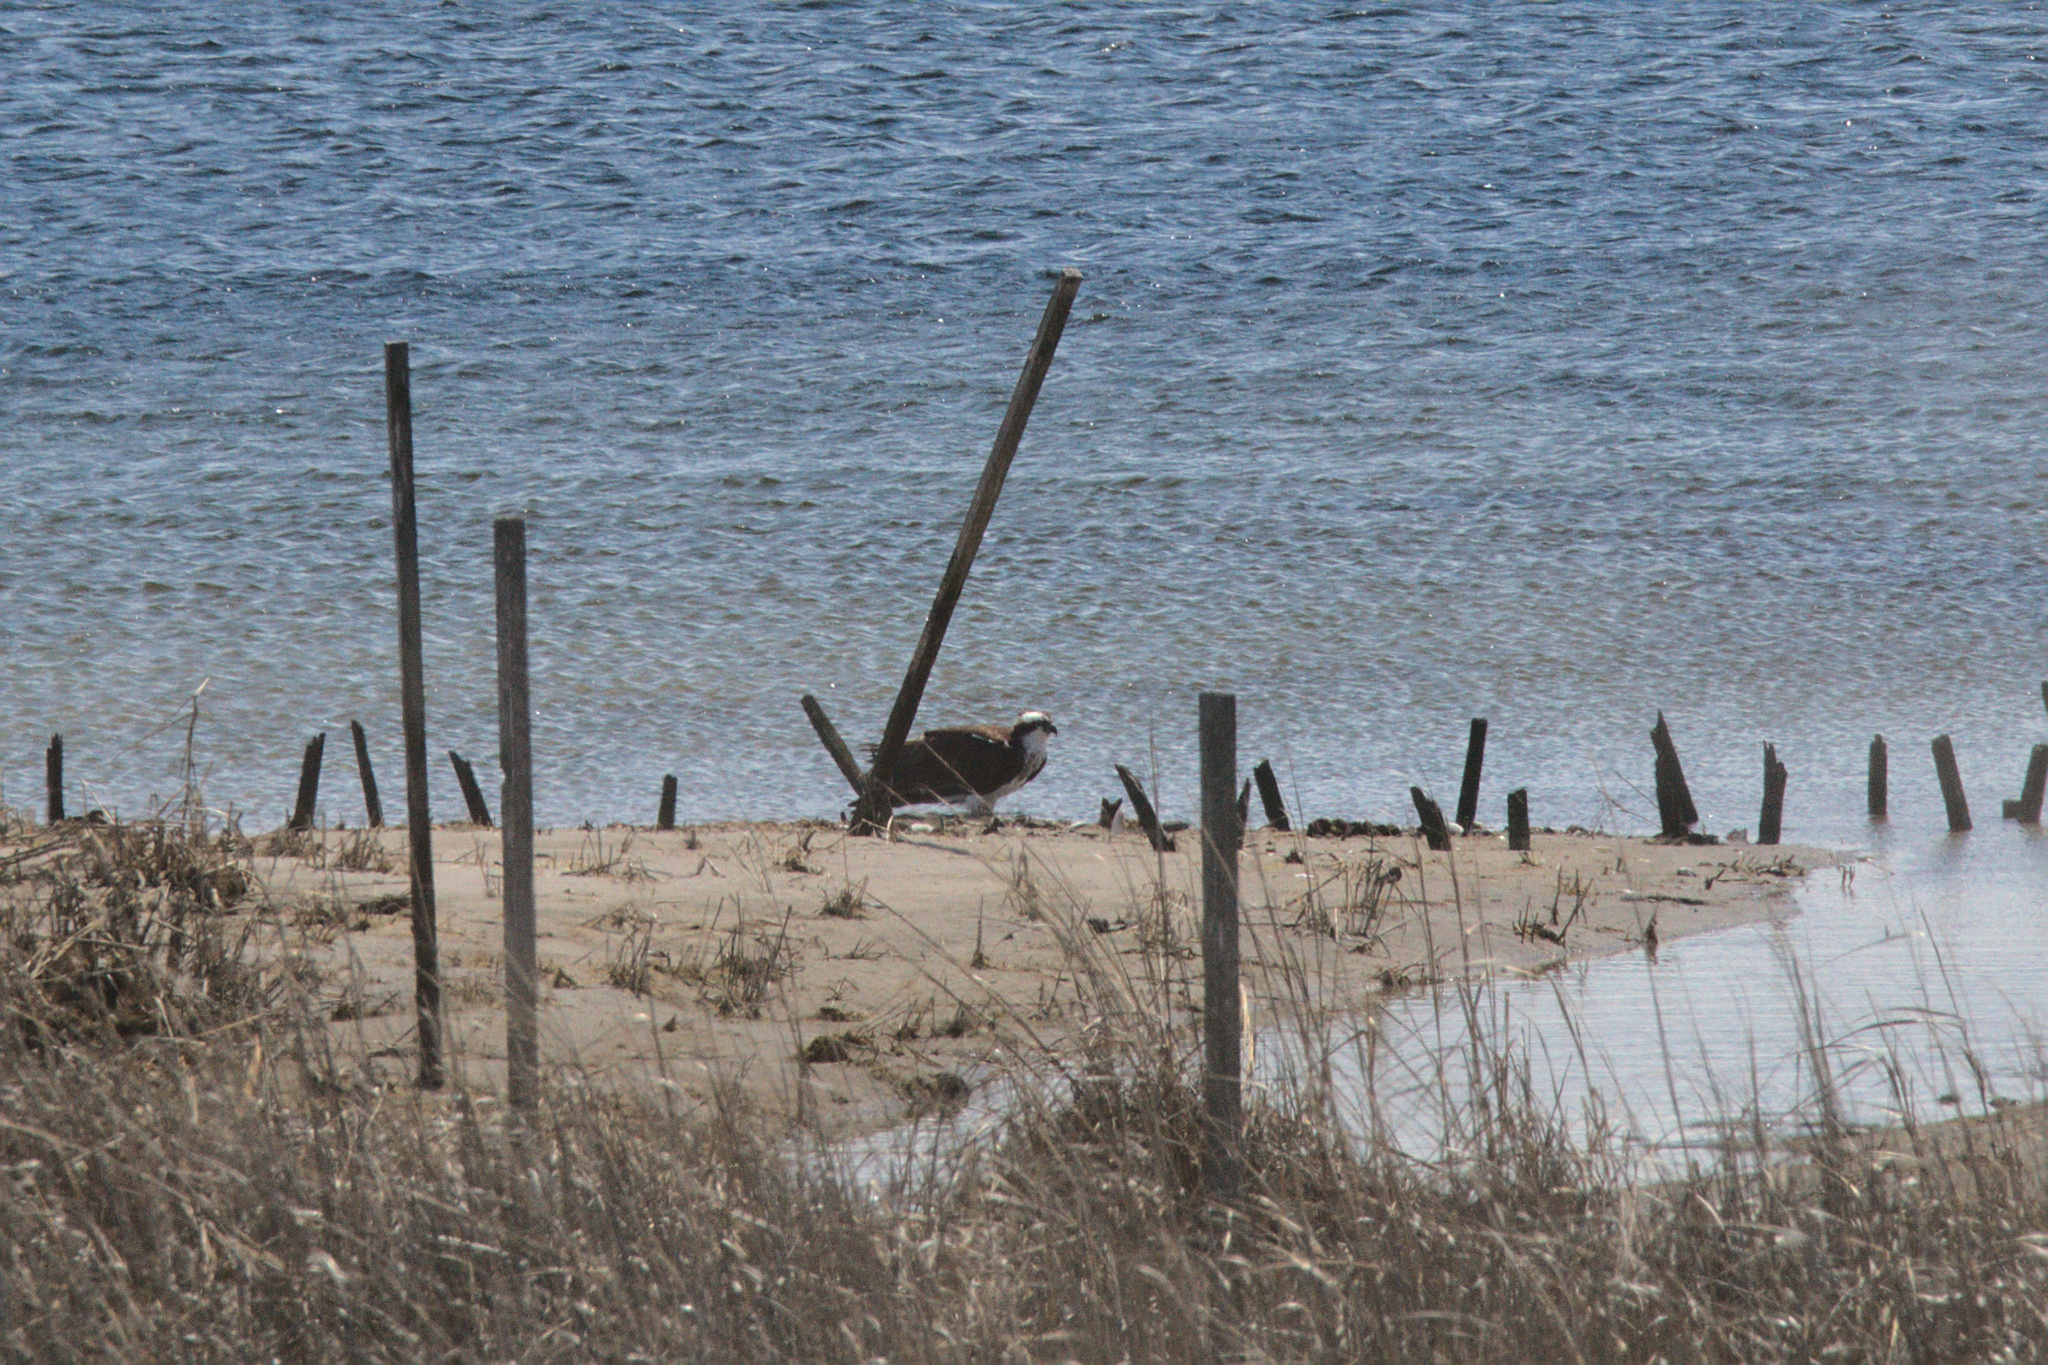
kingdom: Animalia
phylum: Chordata
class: Aves
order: Accipitriformes
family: Pandionidae
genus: Pandion
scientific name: Pandion haliaetus
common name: Osprey
